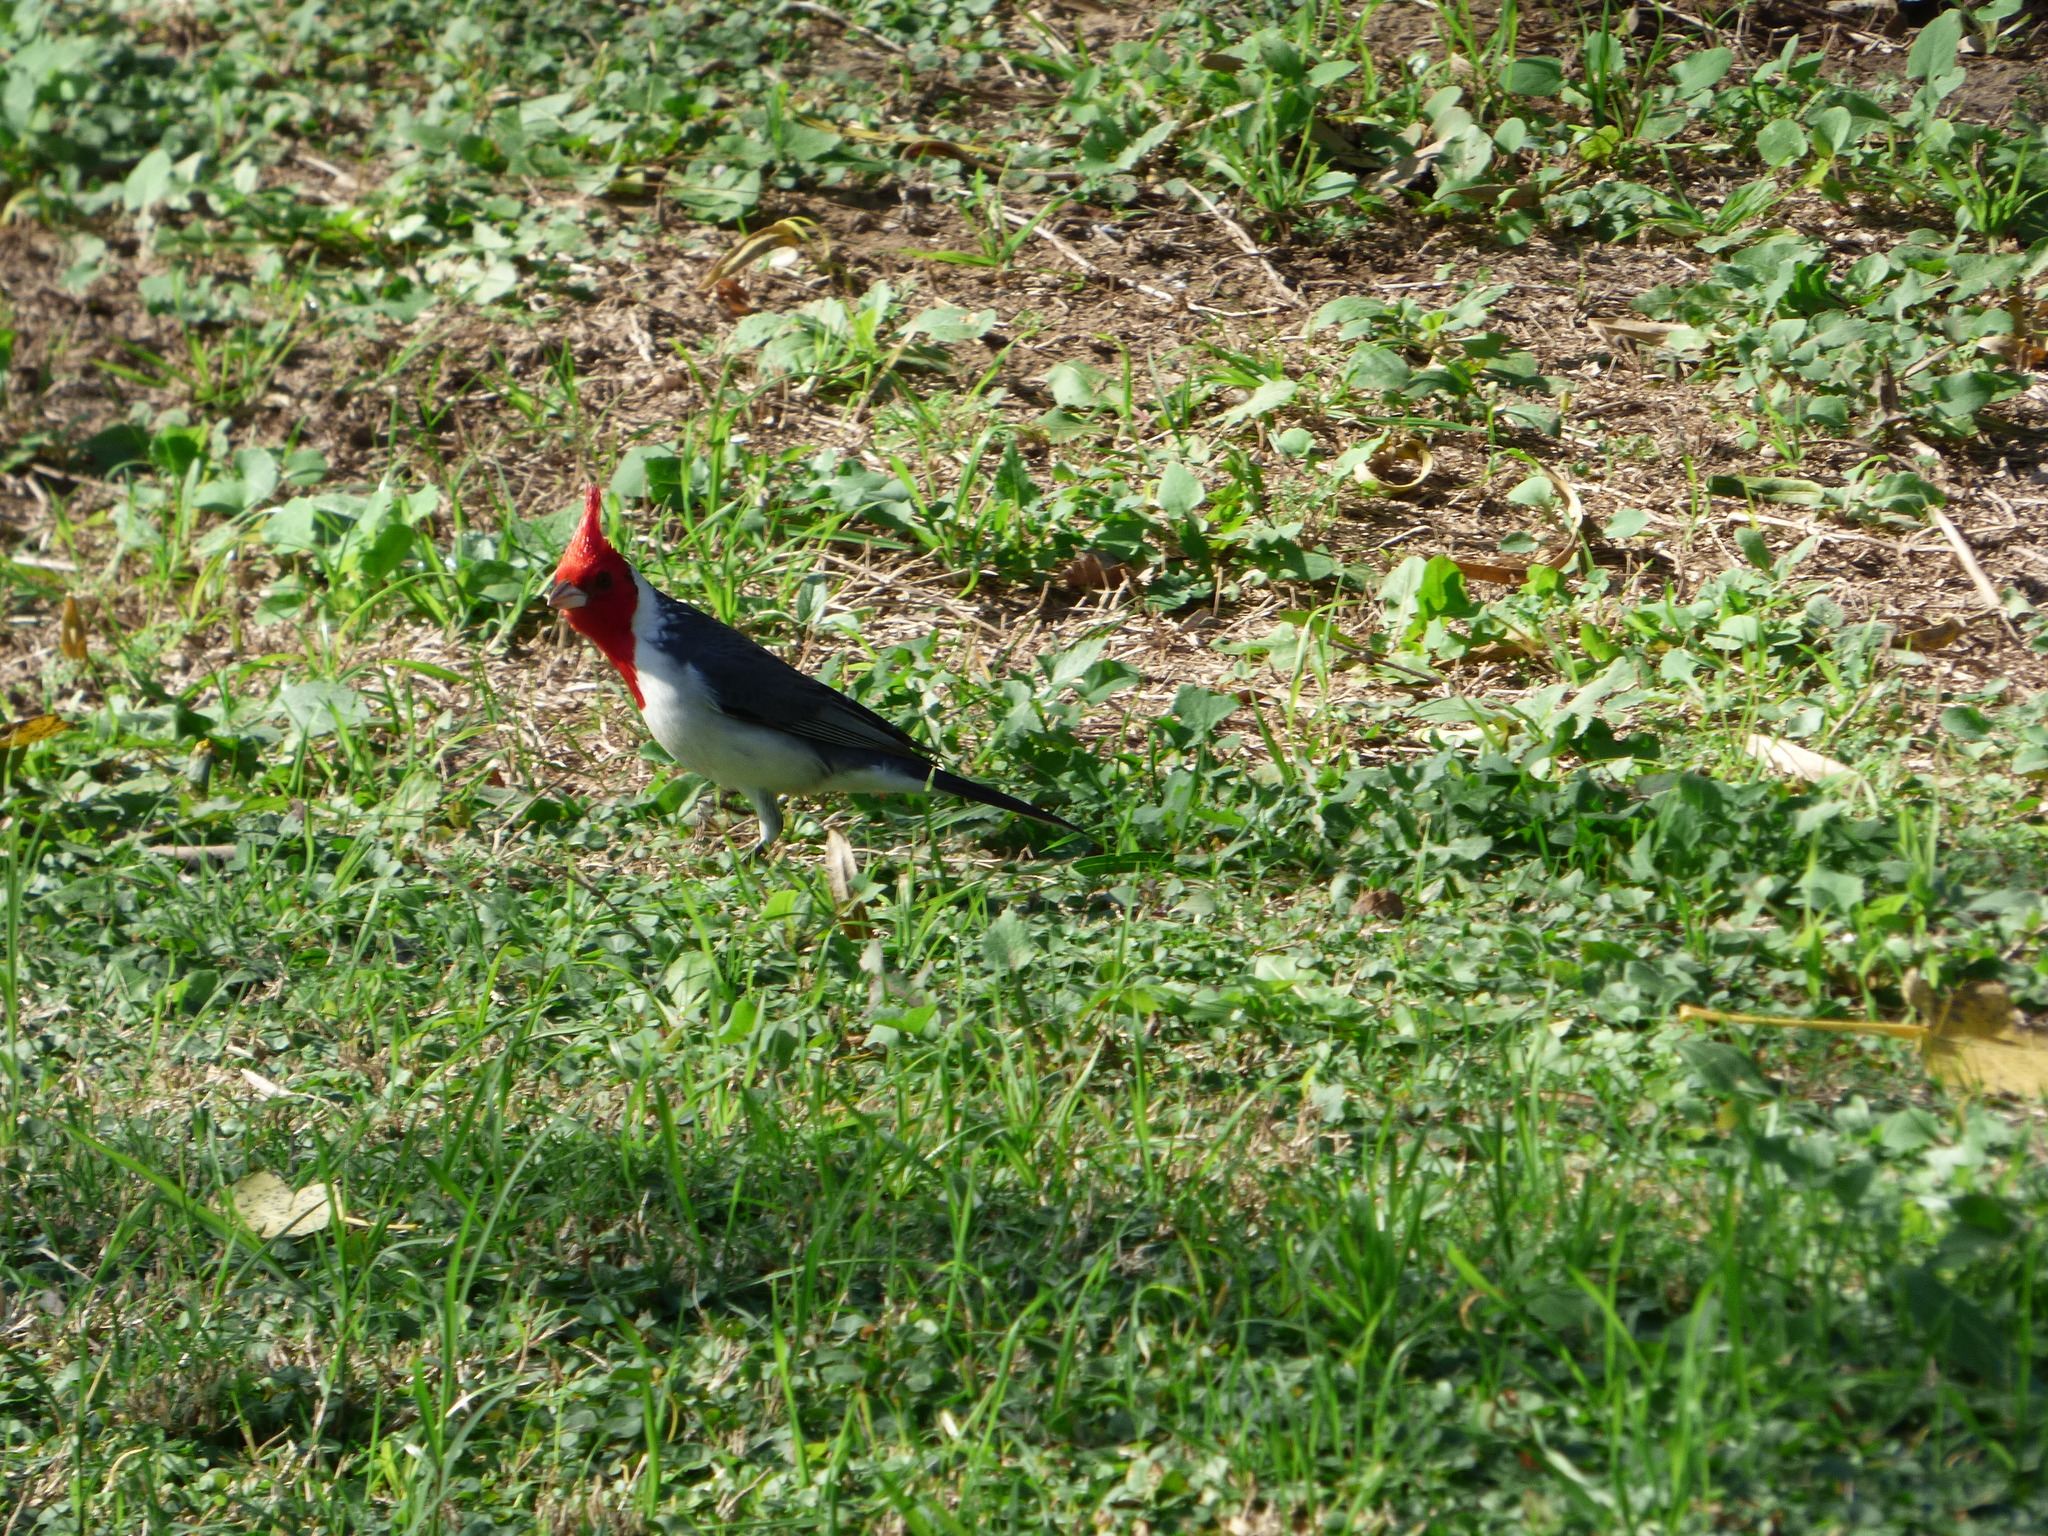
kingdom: Animalia
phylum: Chordata
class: Aves
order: Passeriformes
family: Thraupidae
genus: Paroaria
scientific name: Paroaria coronata
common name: Red-crested cardinal
